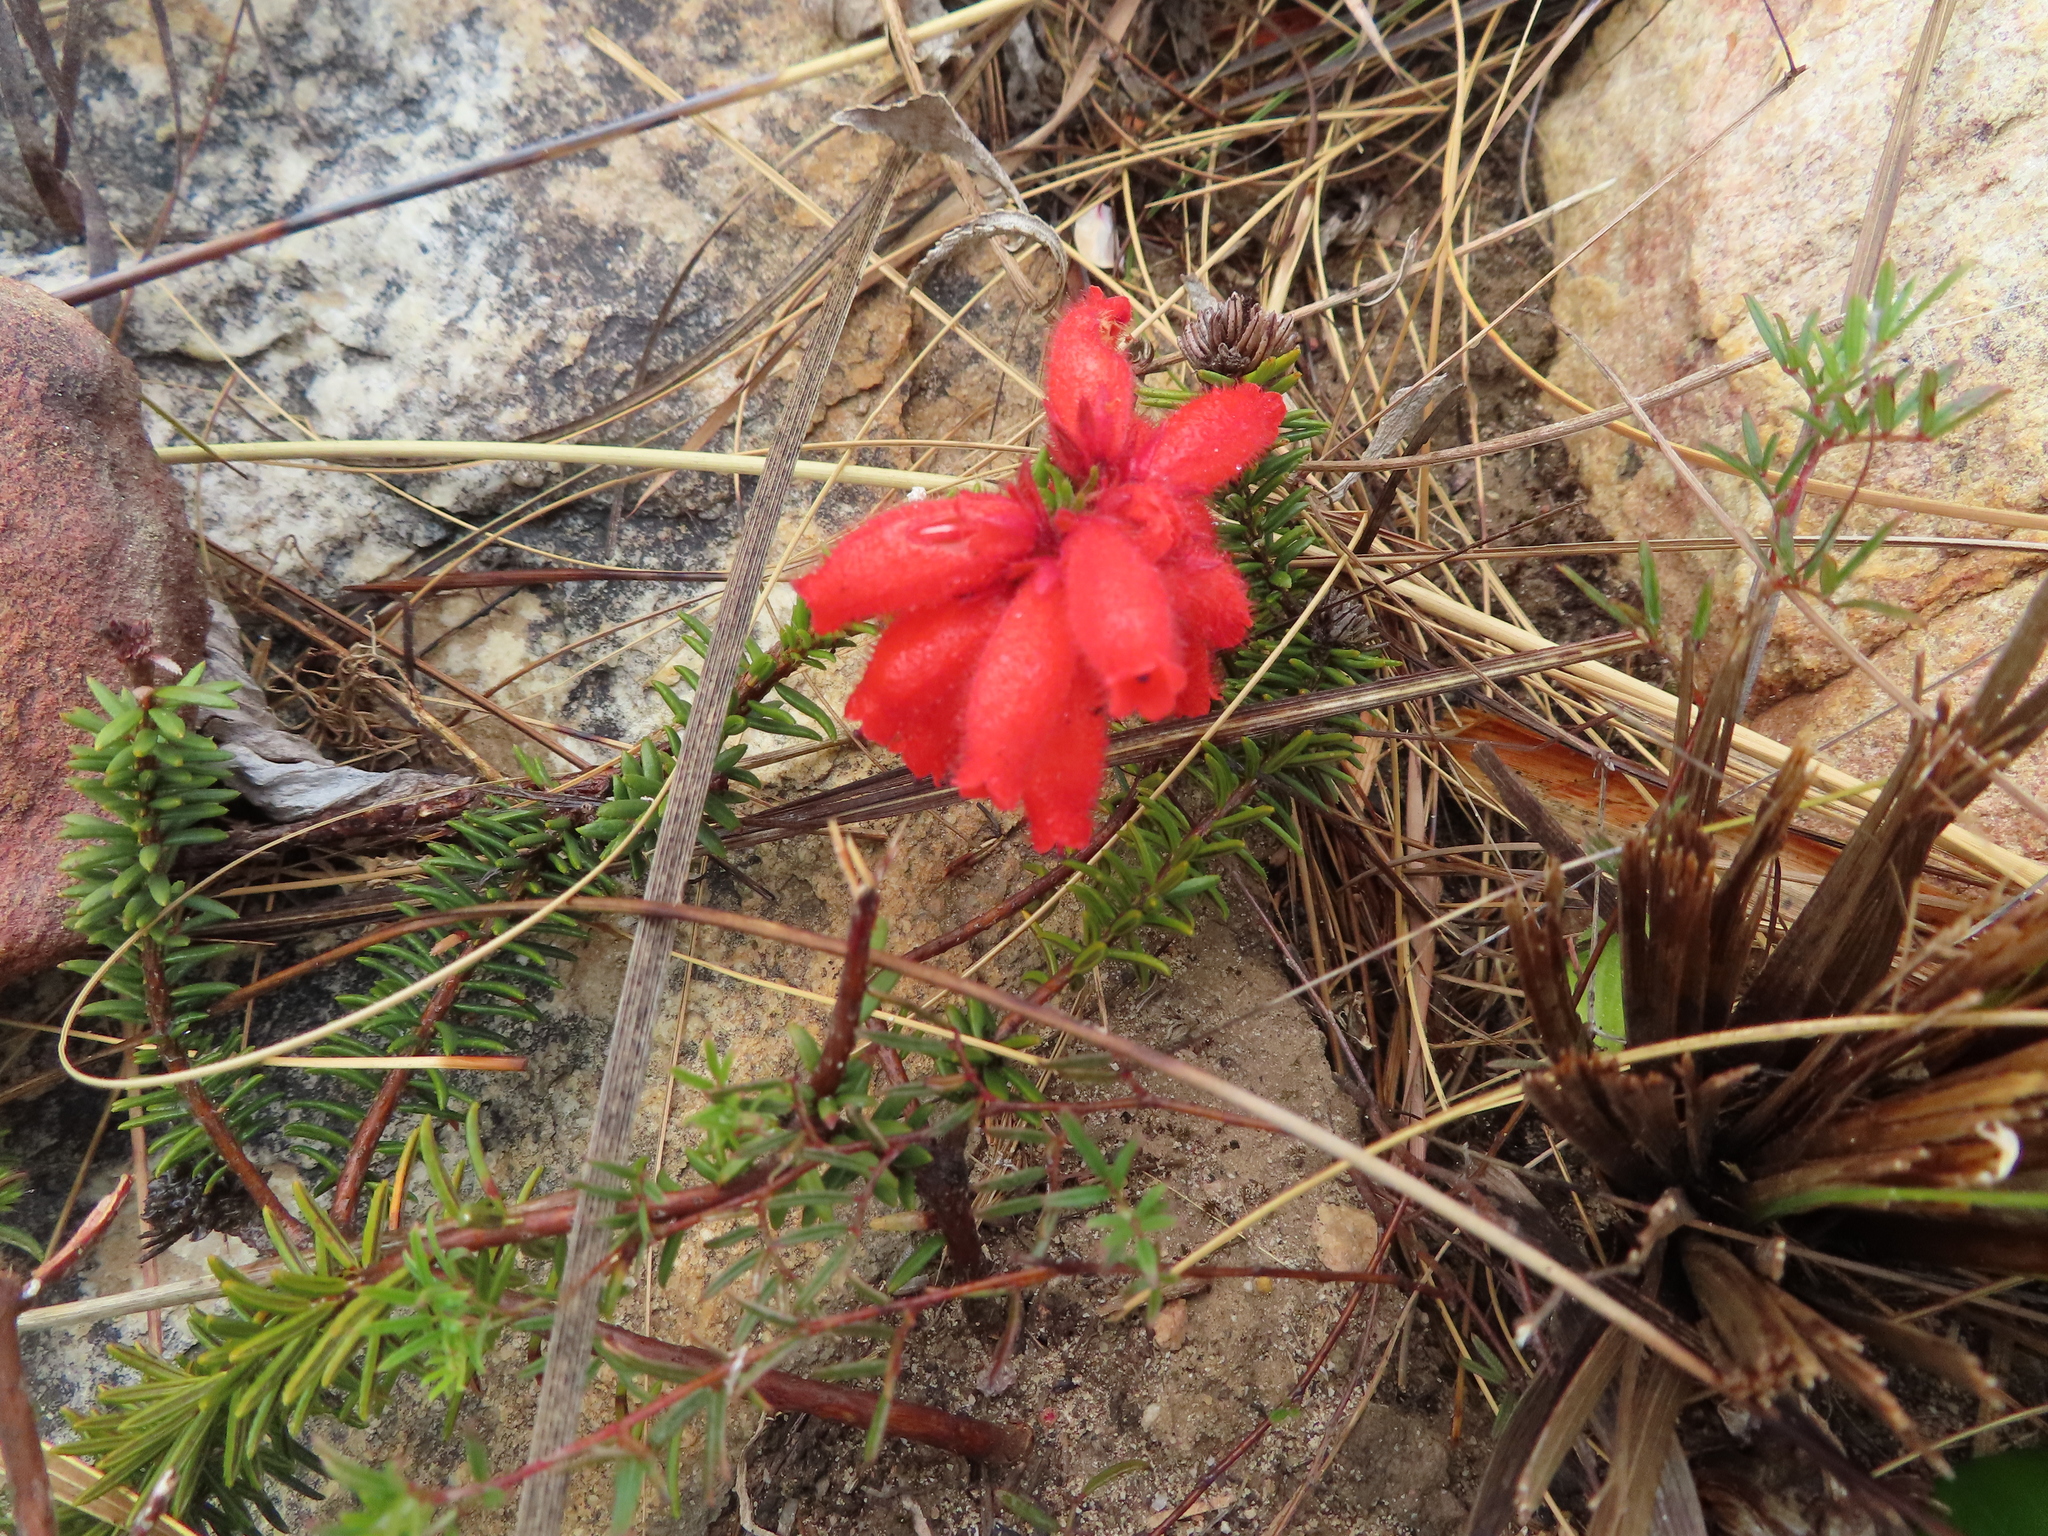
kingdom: Plantae
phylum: Tracheophyta
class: Magnoliopsida
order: Ericales
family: Ericaceae
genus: Erica
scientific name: Erica cerinthoides
